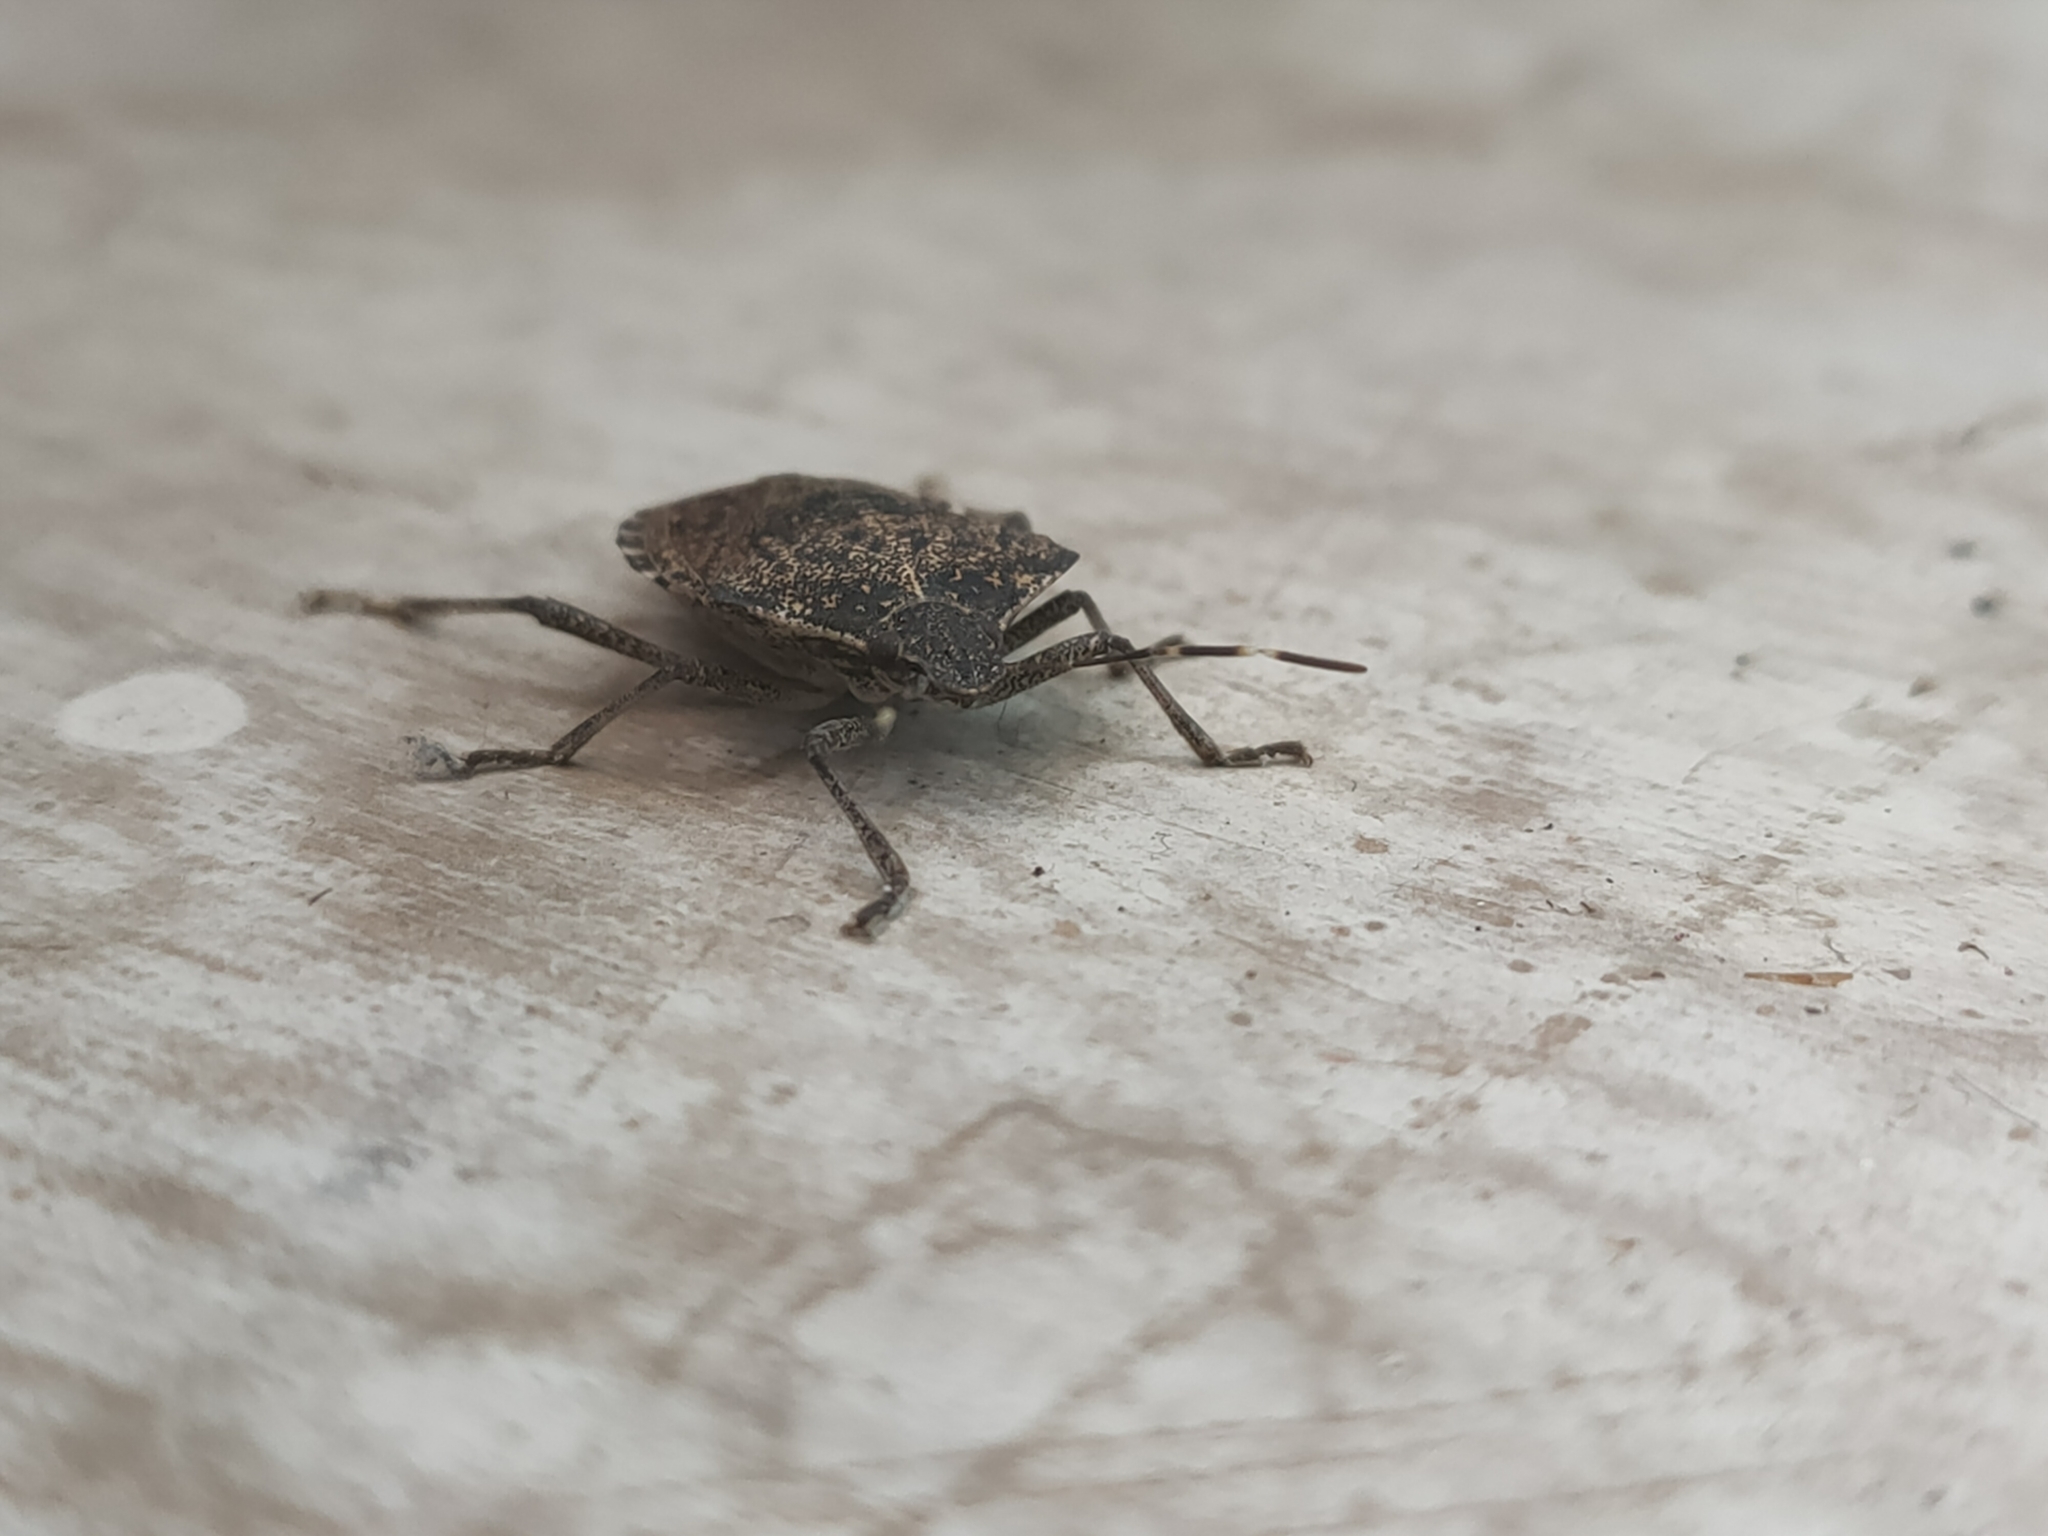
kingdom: Animalia
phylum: Arthropoda
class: Insecta
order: Hemiptera
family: Pentatomidae
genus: Halyomorpha
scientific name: Halyomorpha halys
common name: Brown marmorated stink bug
